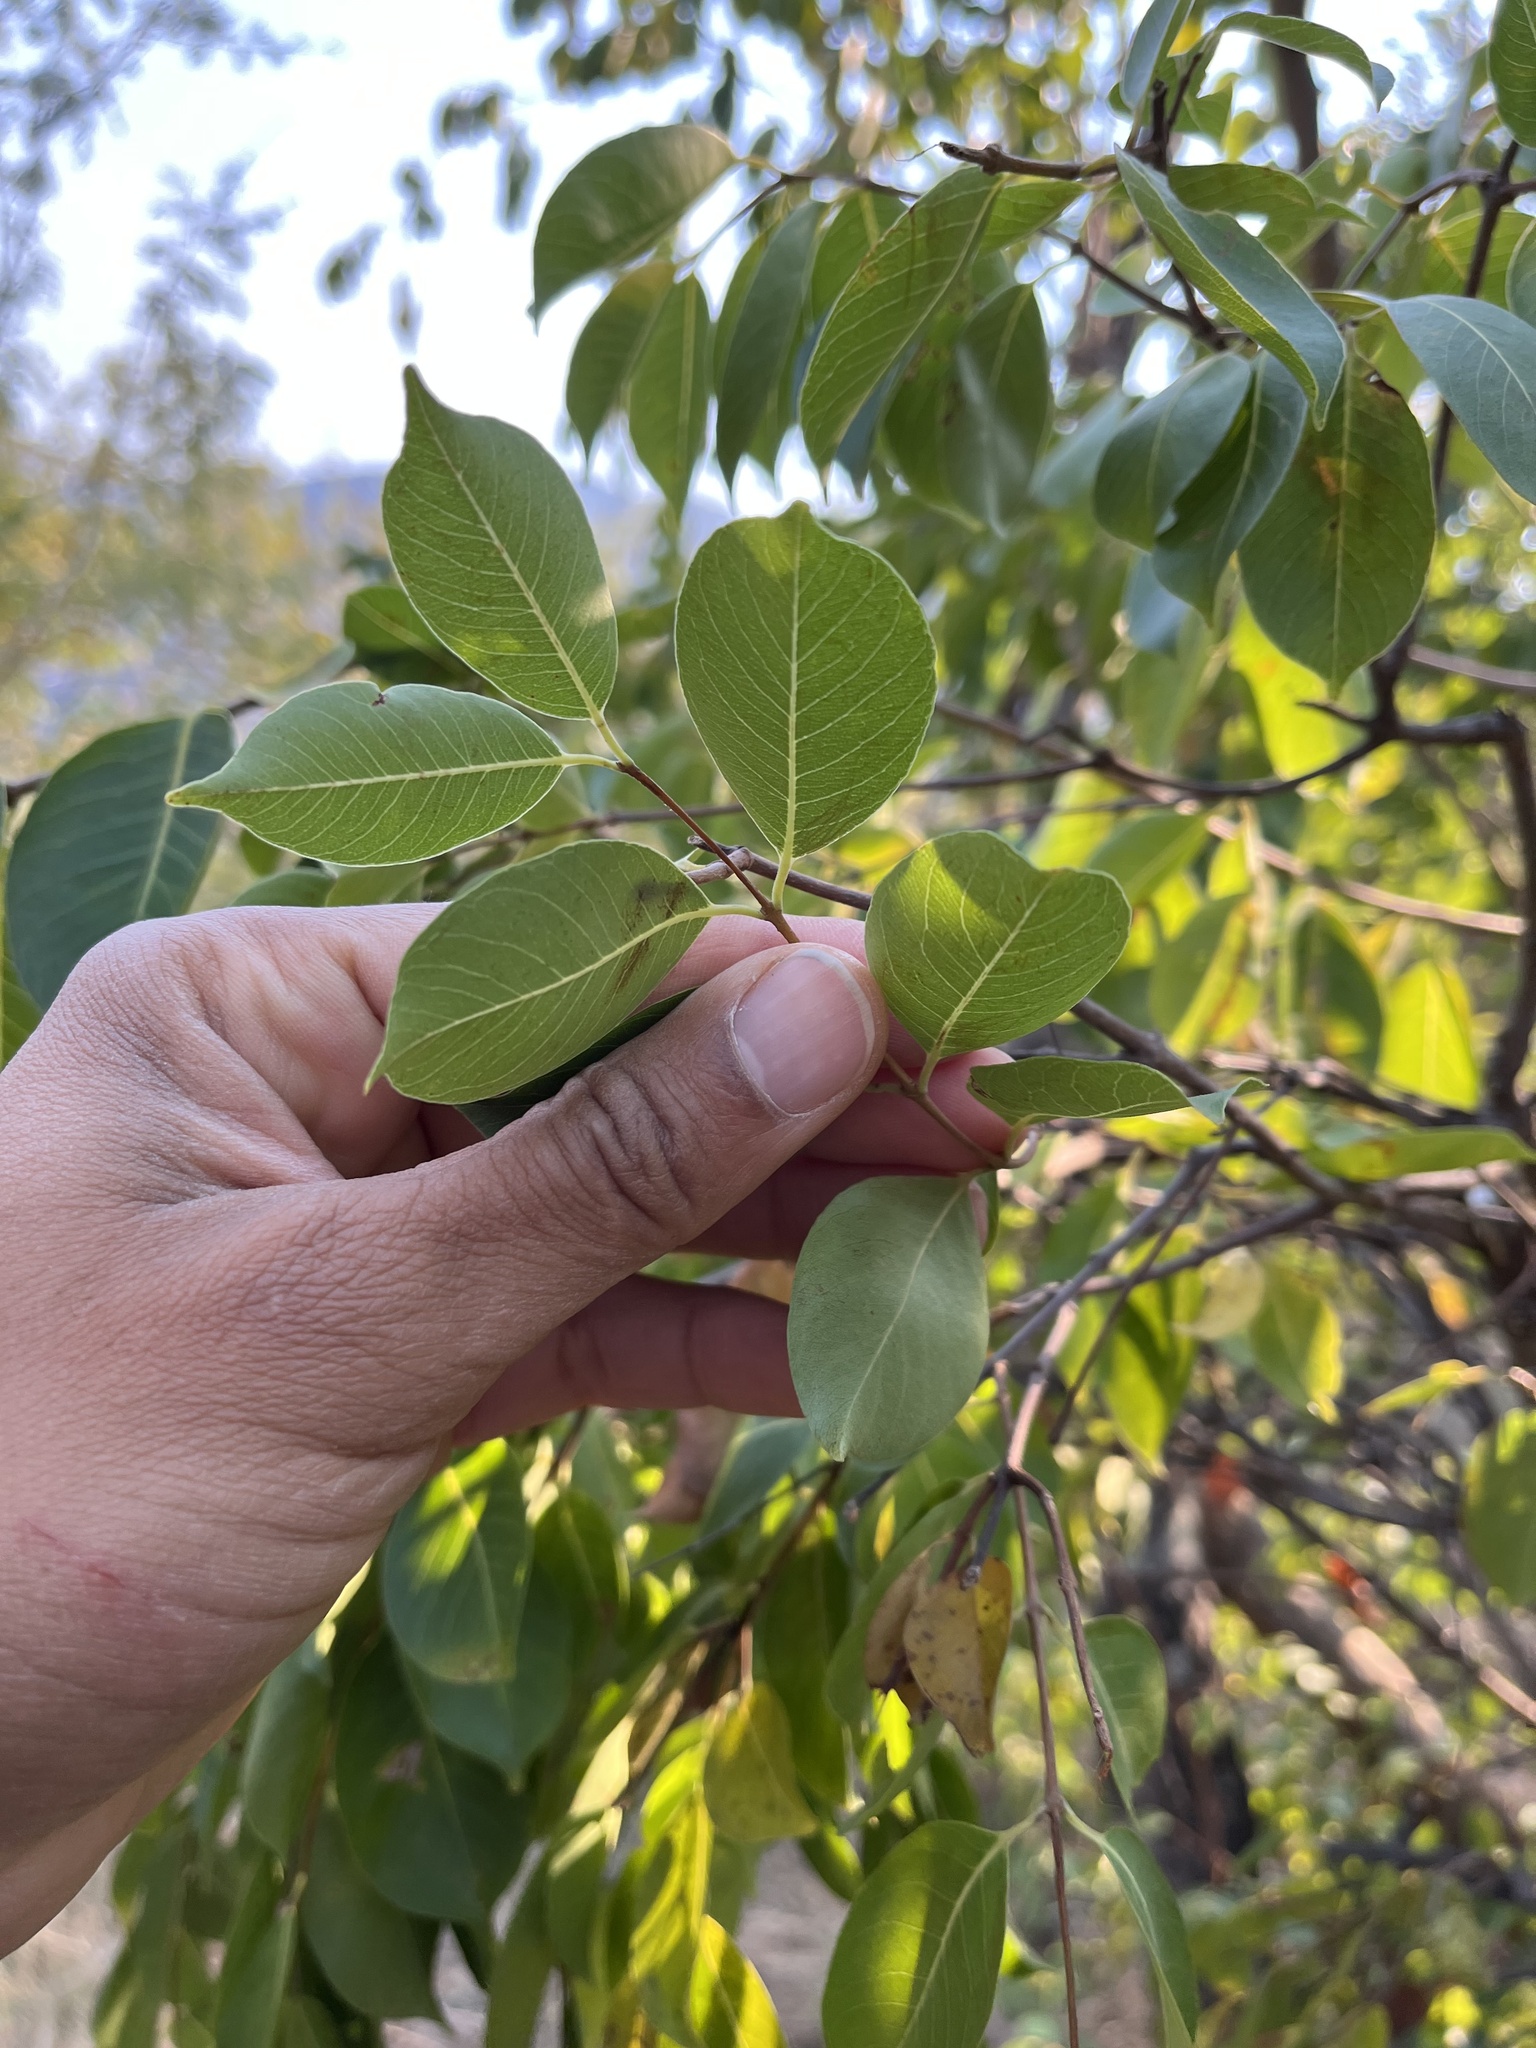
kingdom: Plantae
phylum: Tracheophyta
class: Magnoliopsida
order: Gentianales
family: Apocynaceae
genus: Diplorhynchus
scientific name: Diplorhynchus condylocarpon
